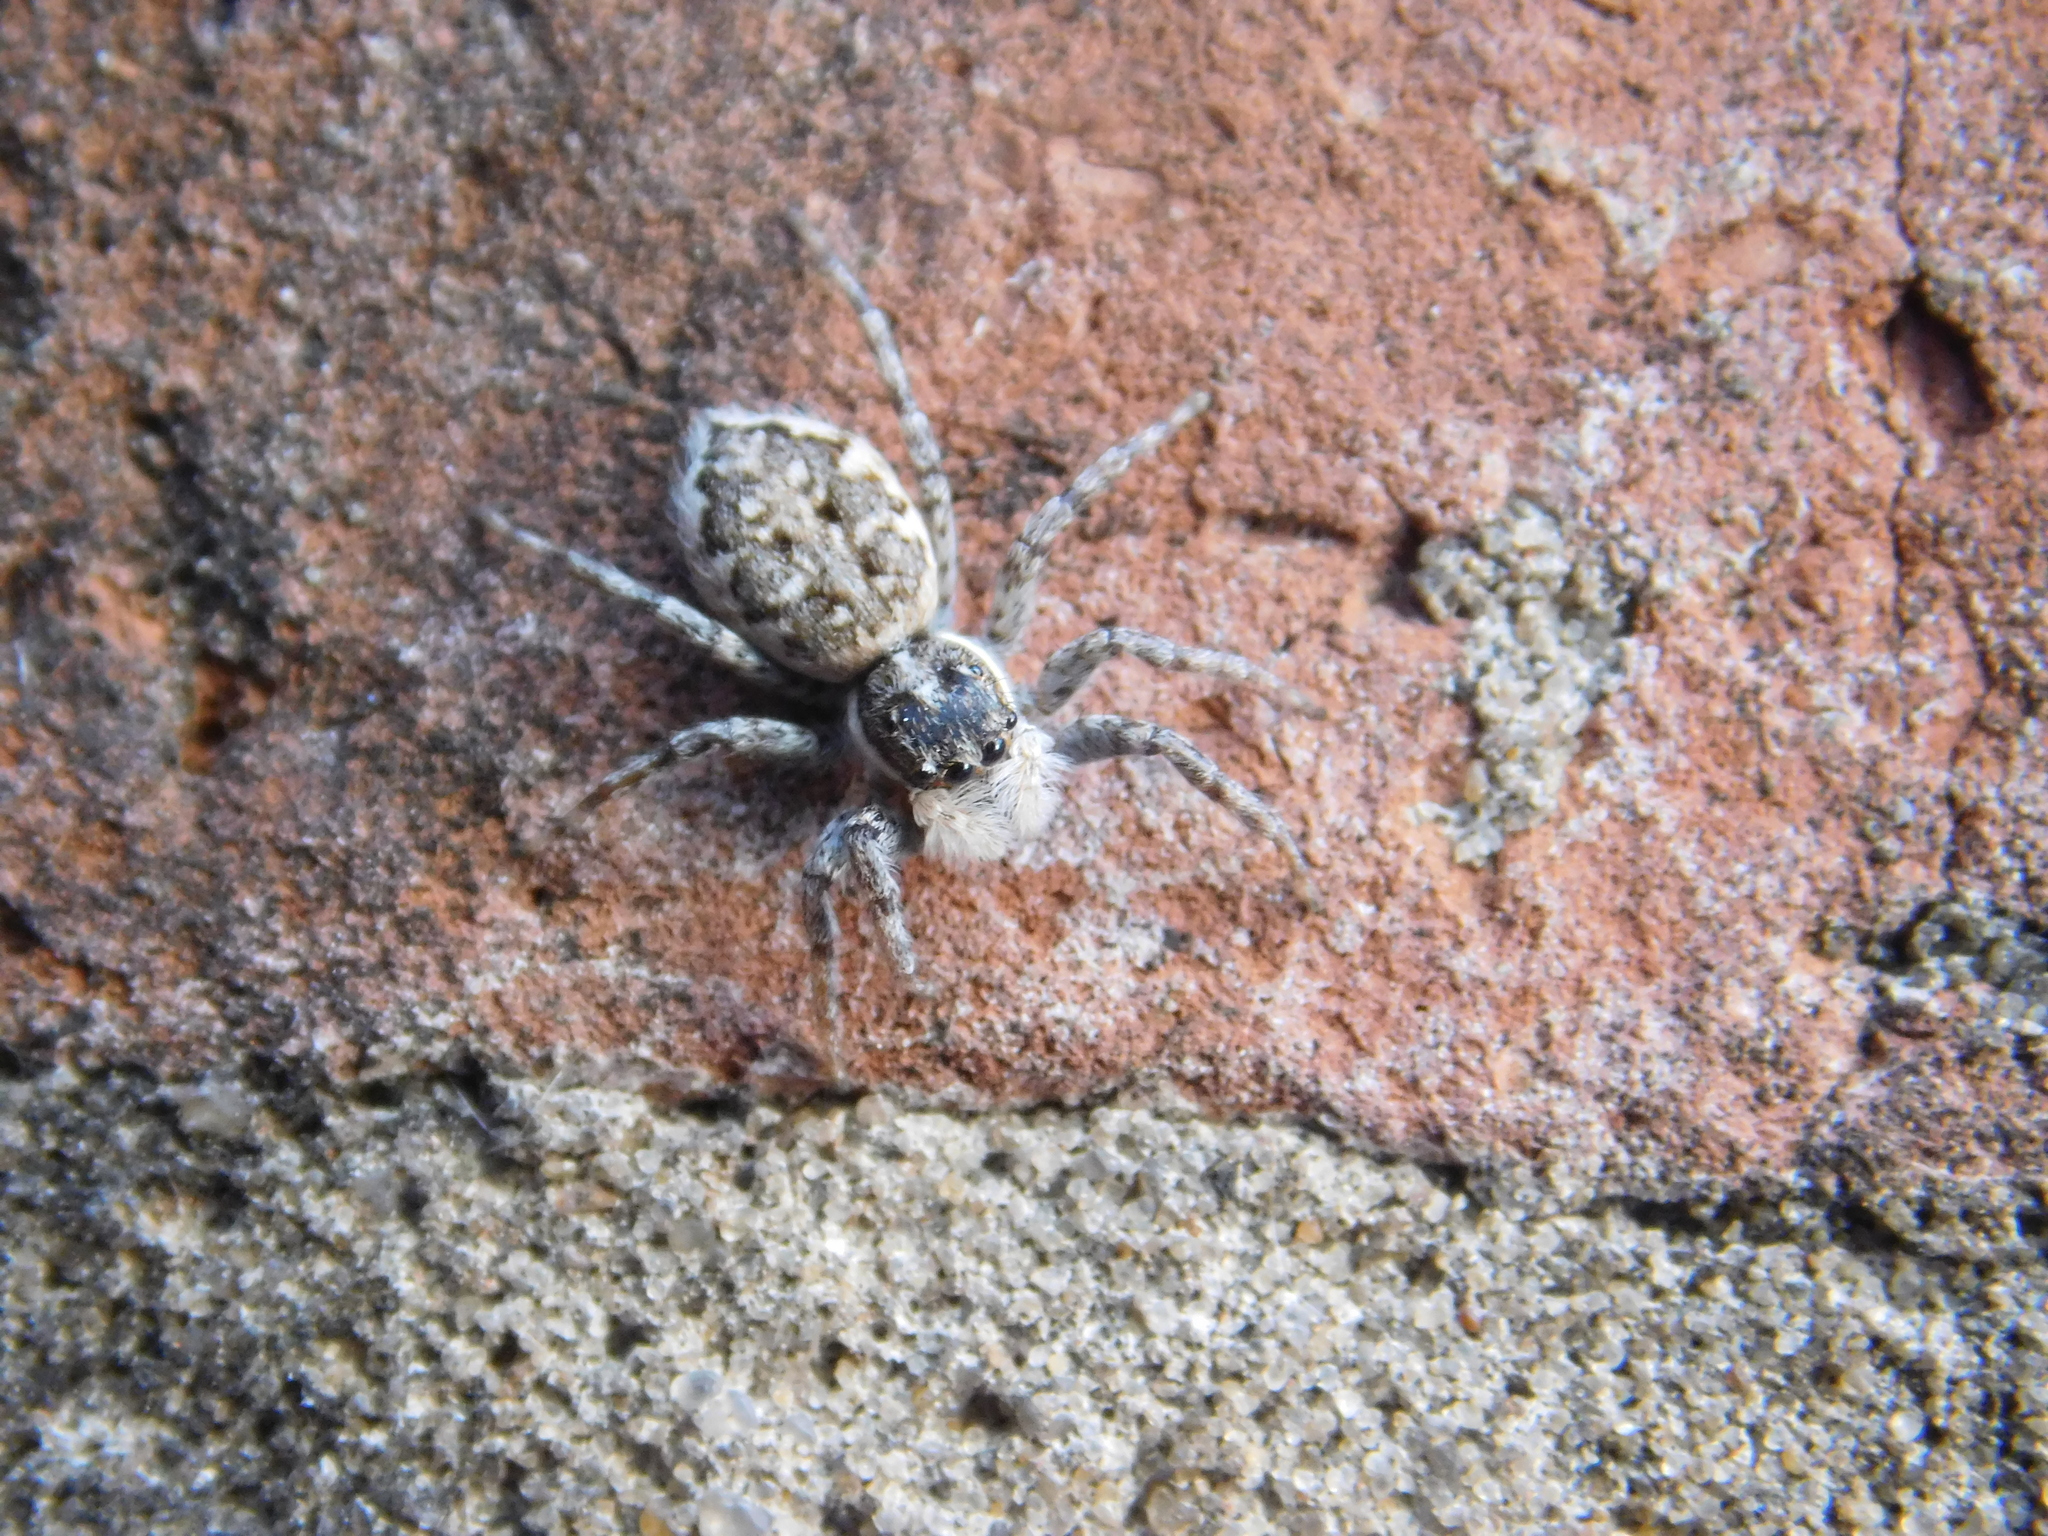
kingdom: Animalia
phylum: Arthropoda
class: Arachnida
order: Araneae
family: Salticidae
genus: Menemerus
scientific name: Menemerus semilimbatus
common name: Jumping spider
